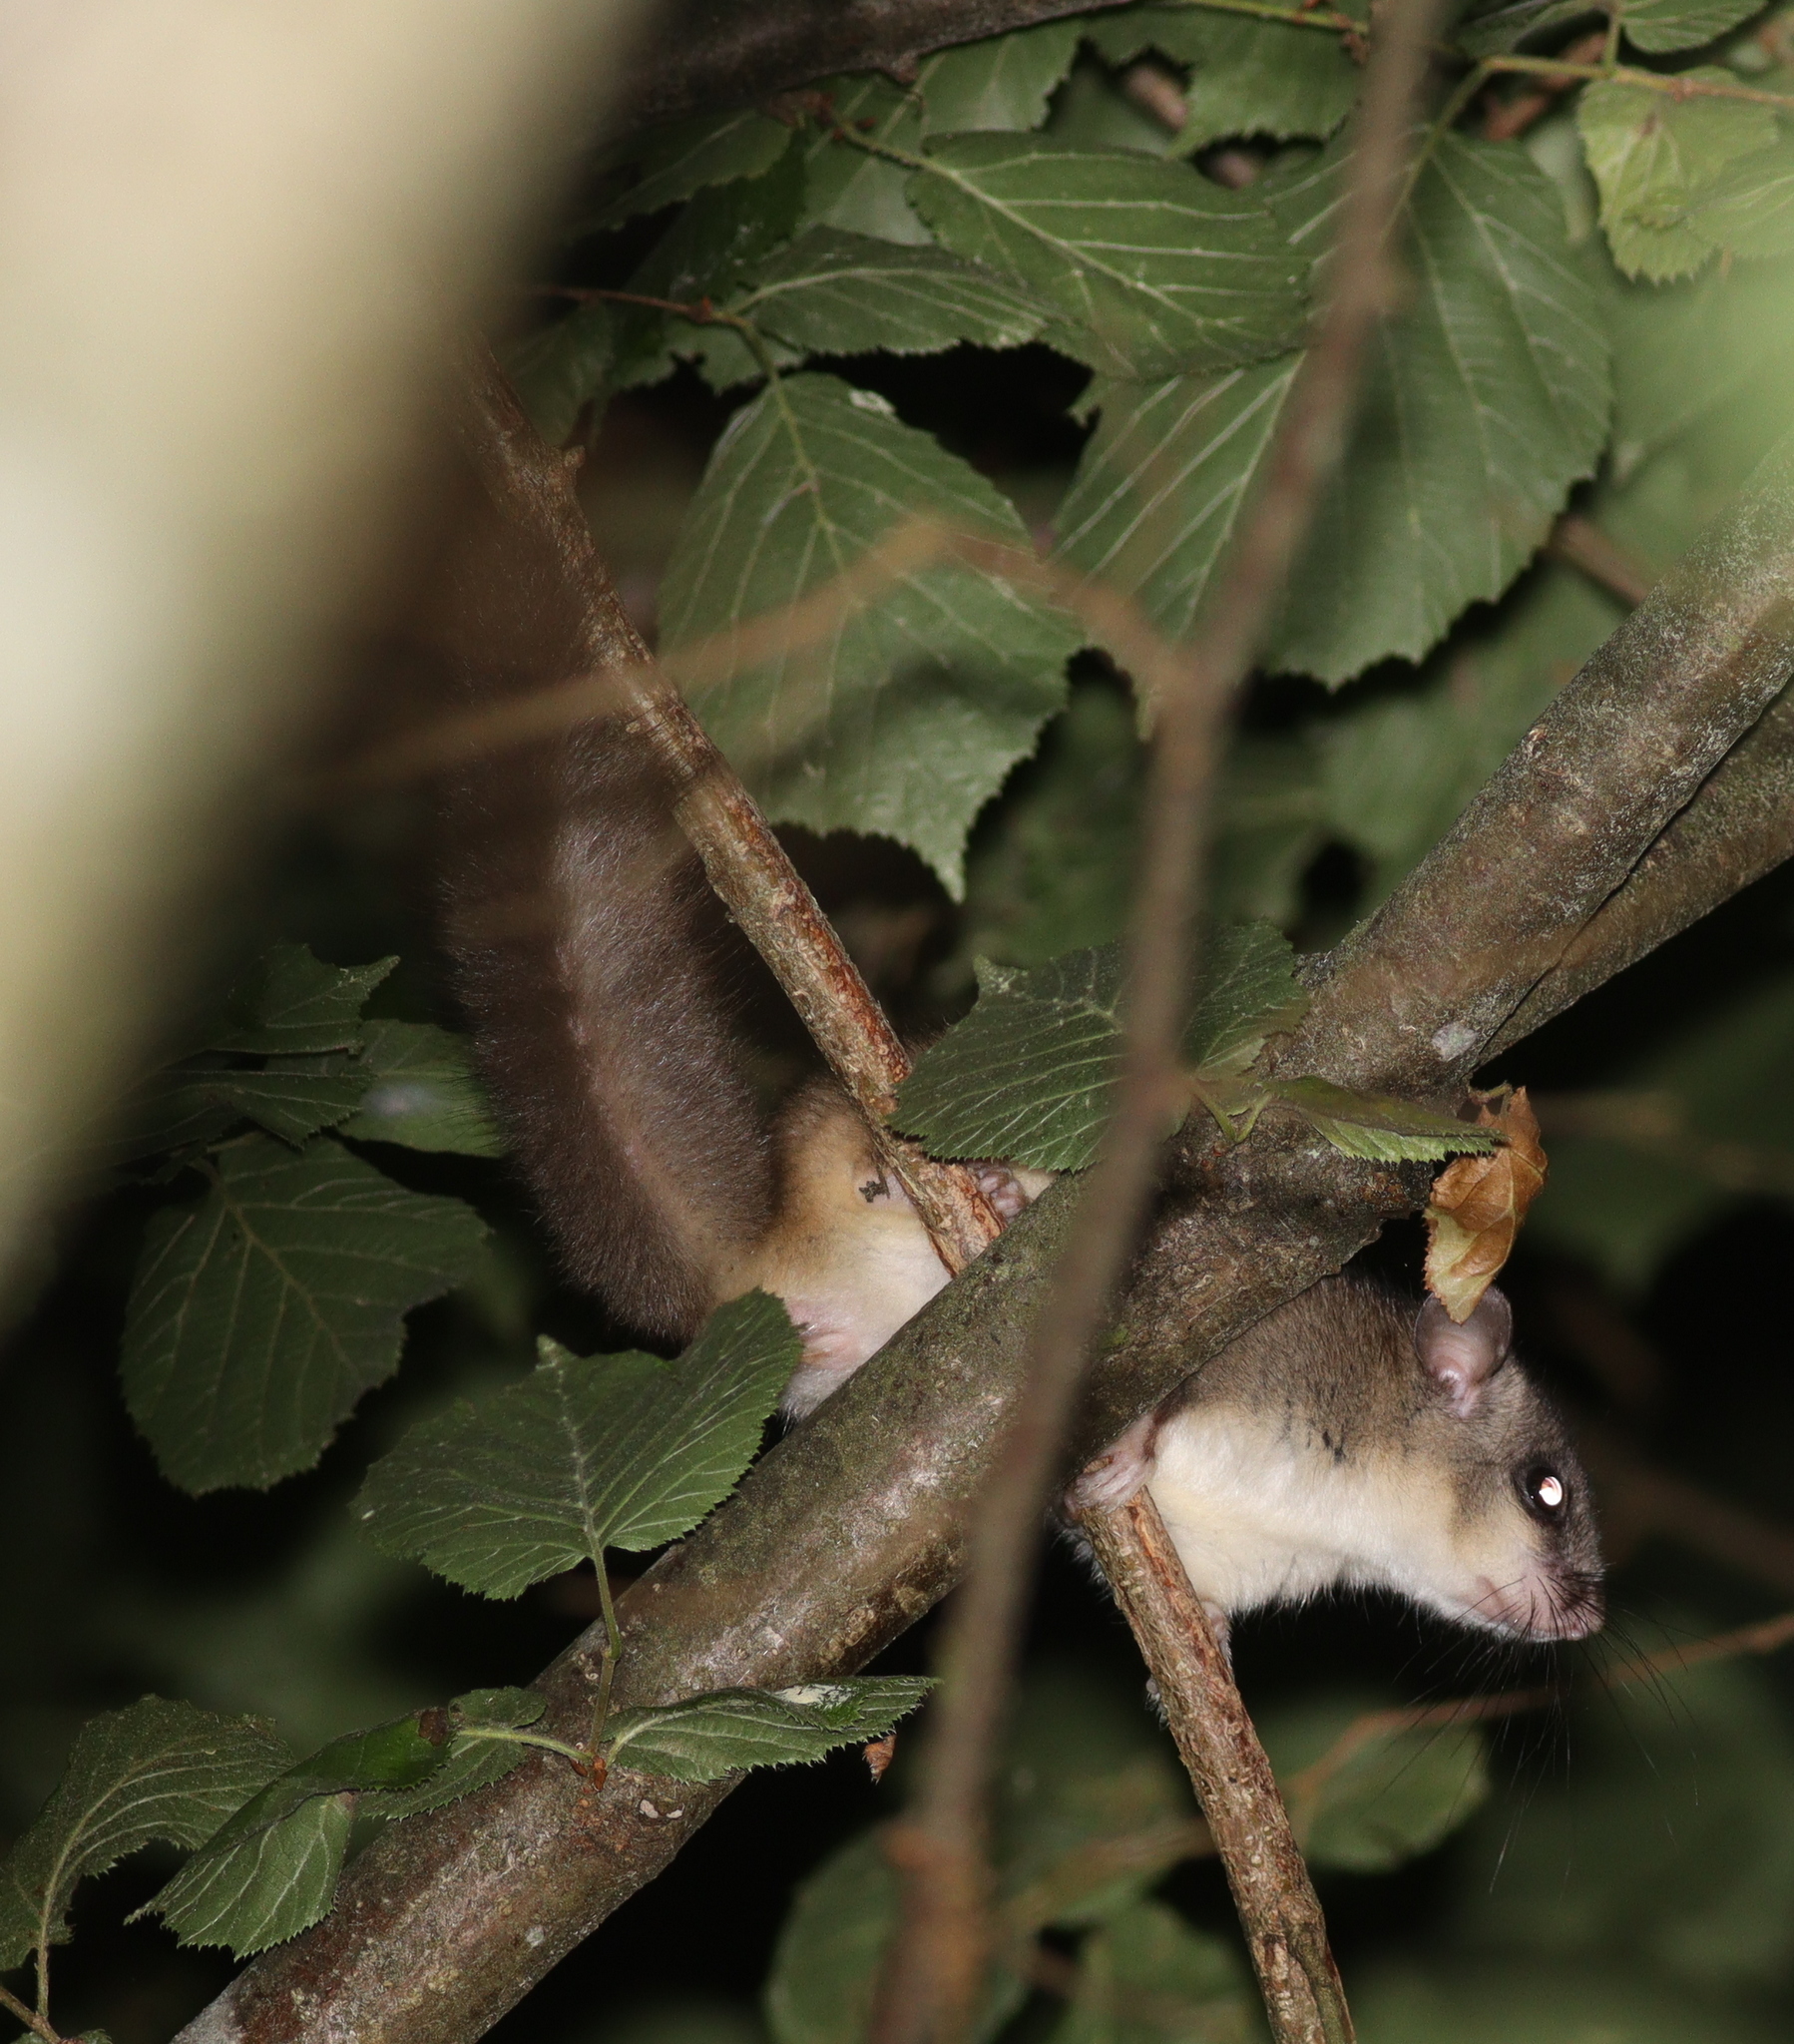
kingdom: Animalia
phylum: Chordata
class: Mammalia
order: Rodentia
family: Gliridae
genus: Glis
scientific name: Glis glis
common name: Fat dormouse
